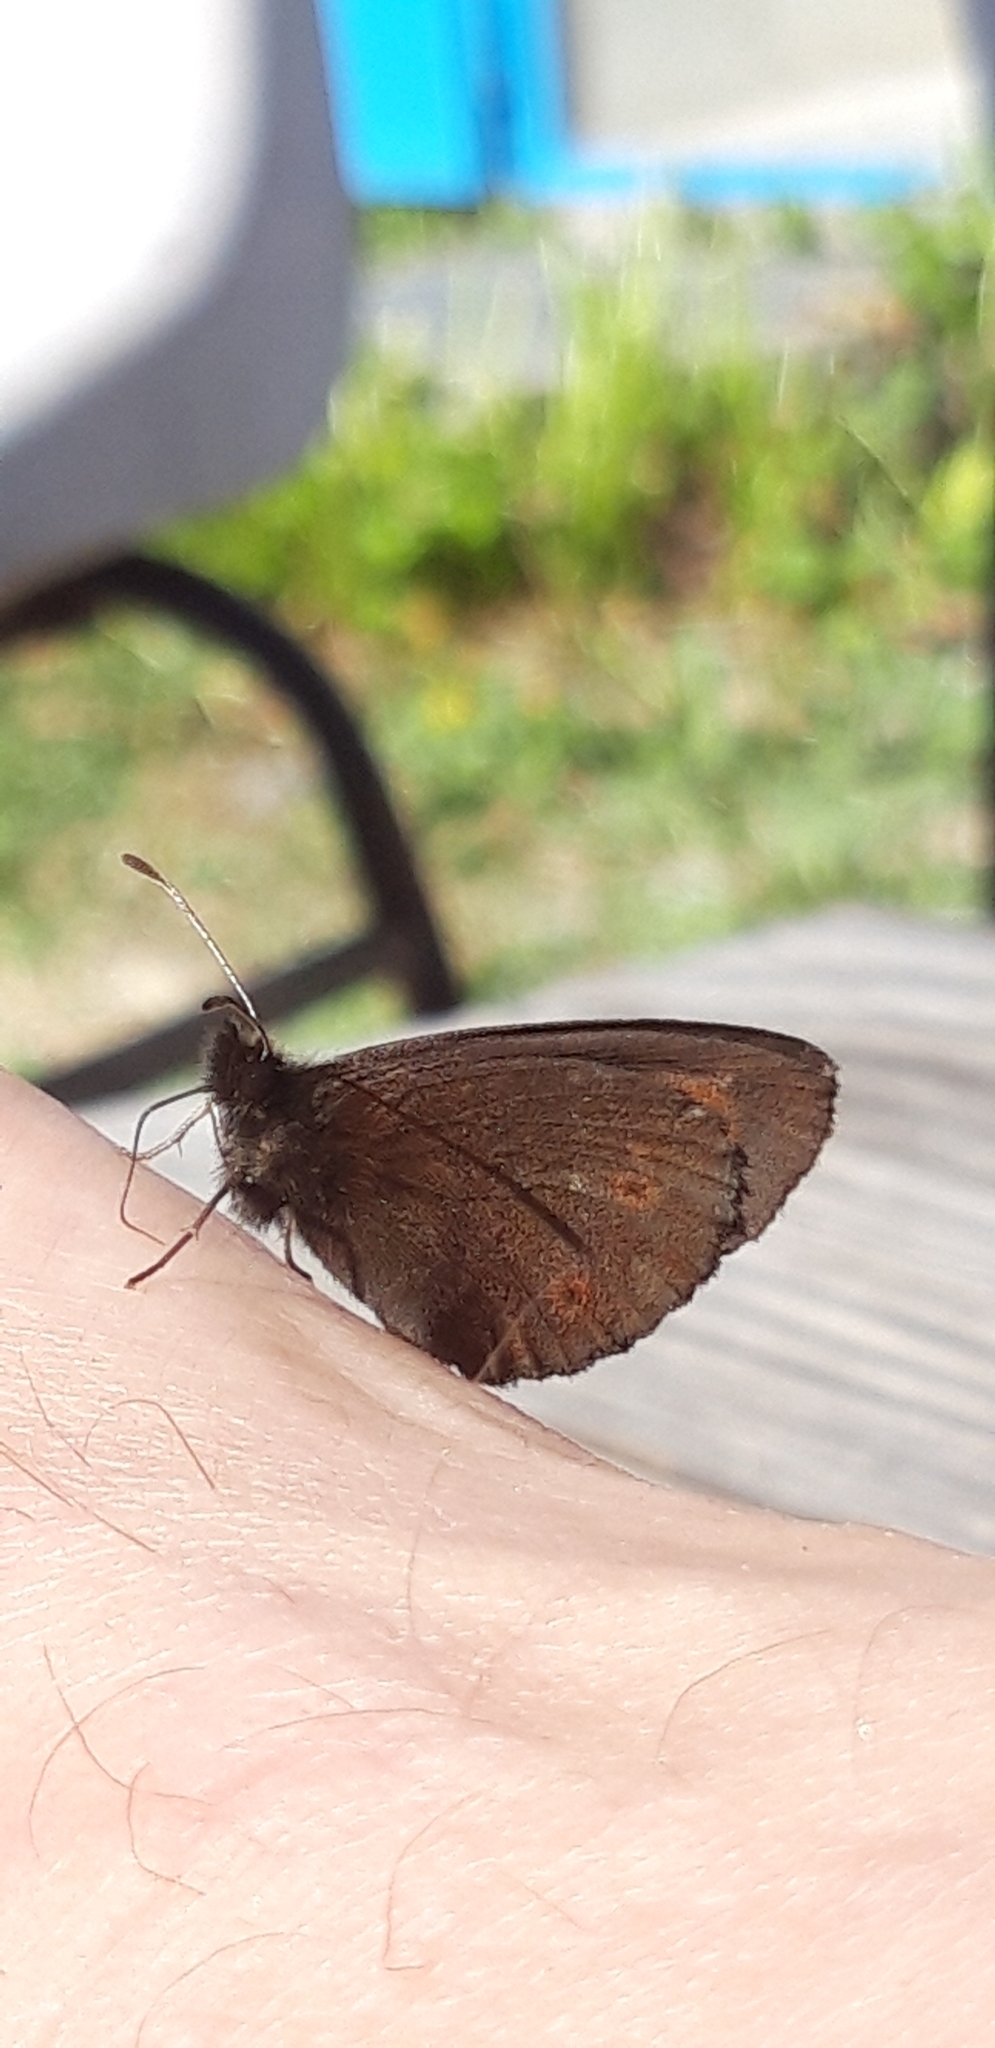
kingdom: Animalia
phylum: Arthropoda
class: Insecta
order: Lepidoptera
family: Nymphalidae
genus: Erebia
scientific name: Erebia euryale
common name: Large ringlet
